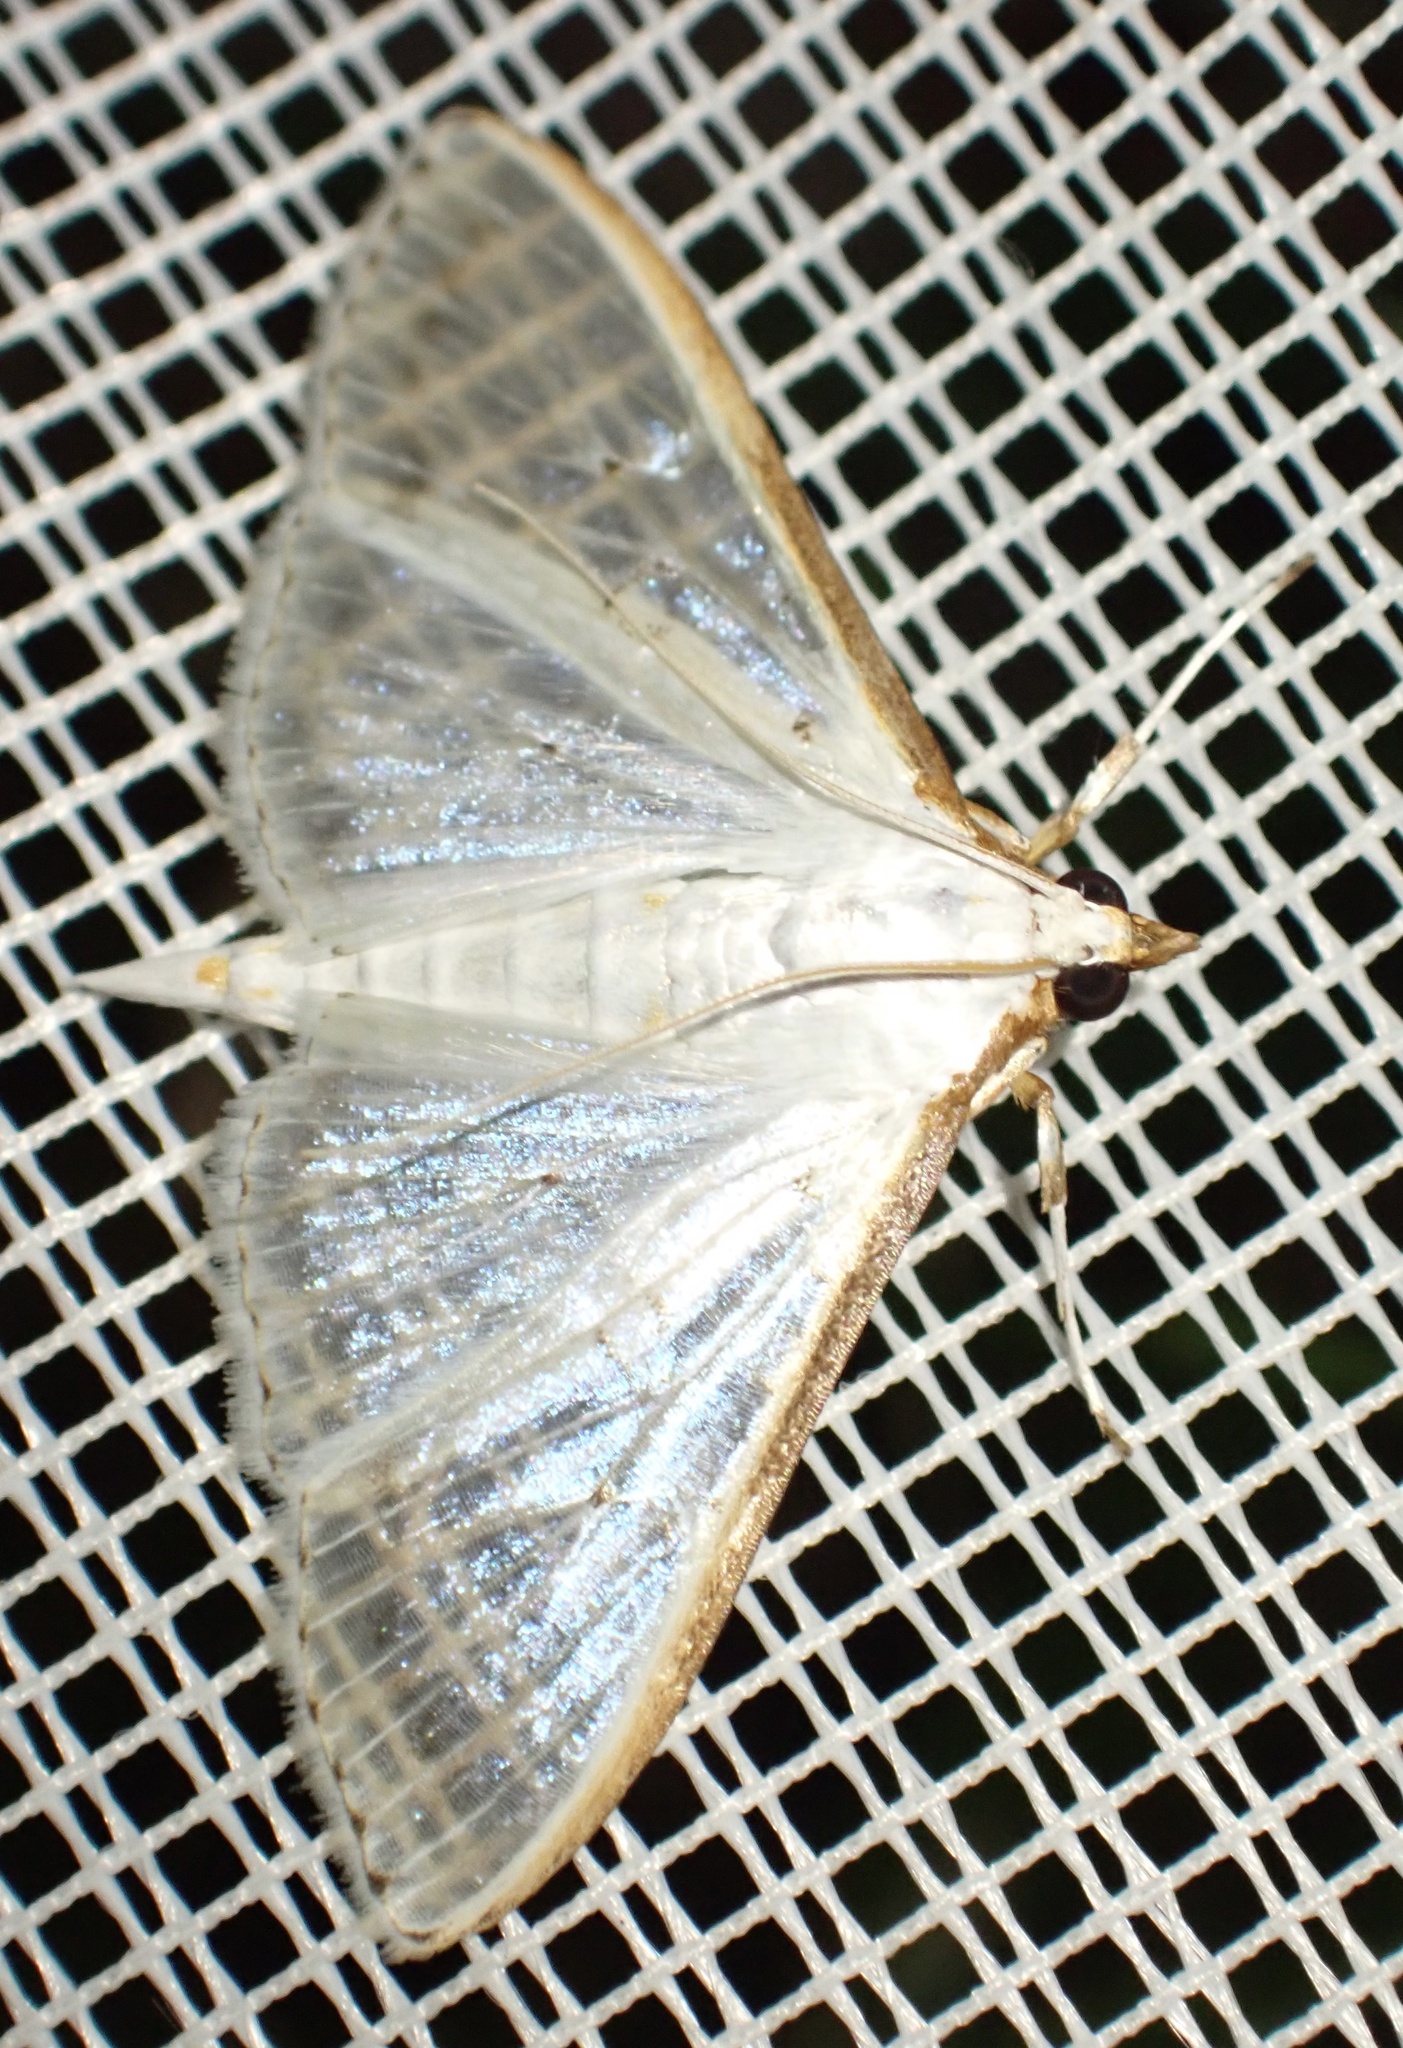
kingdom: Animalia
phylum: Arthropoda
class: Insecta
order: Lepidoptera
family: Crambidae
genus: Palpita
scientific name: Palpita pratti
